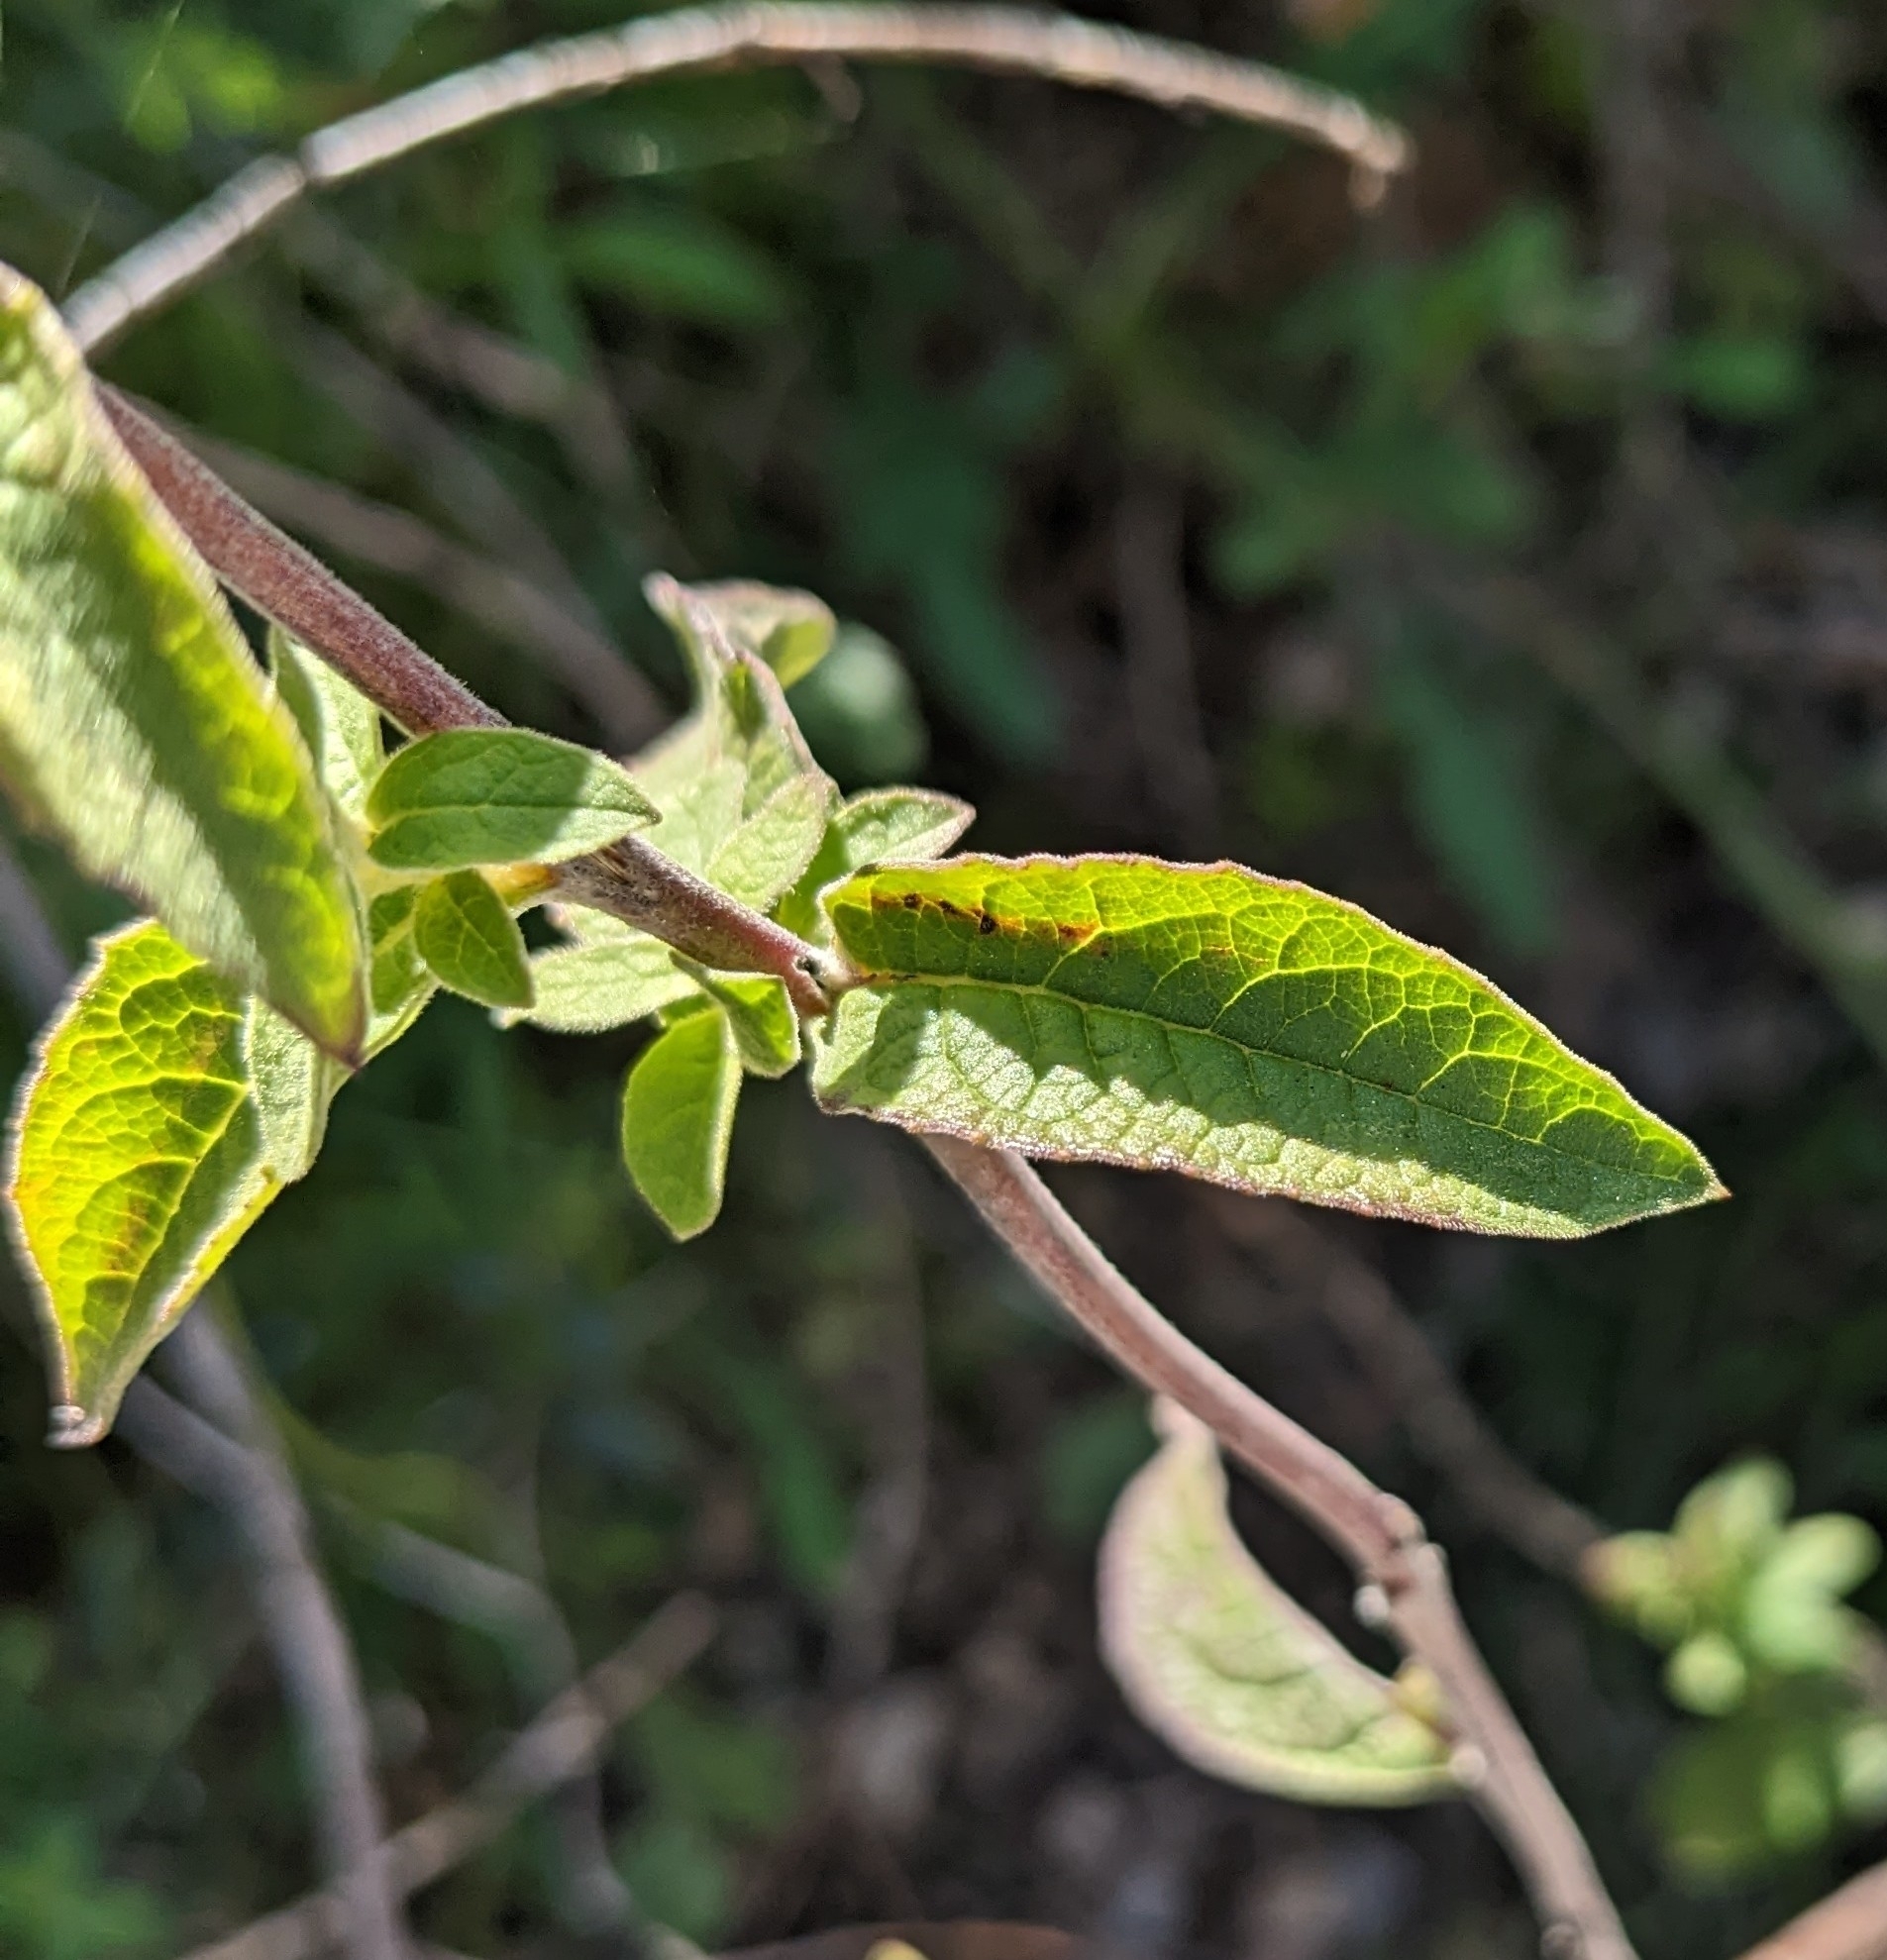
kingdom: Plantae
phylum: Tracheophyta
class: Magnoliopsida
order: Asterales
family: Asteraceae
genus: Pentanema
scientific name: Pentanema squarrosum
